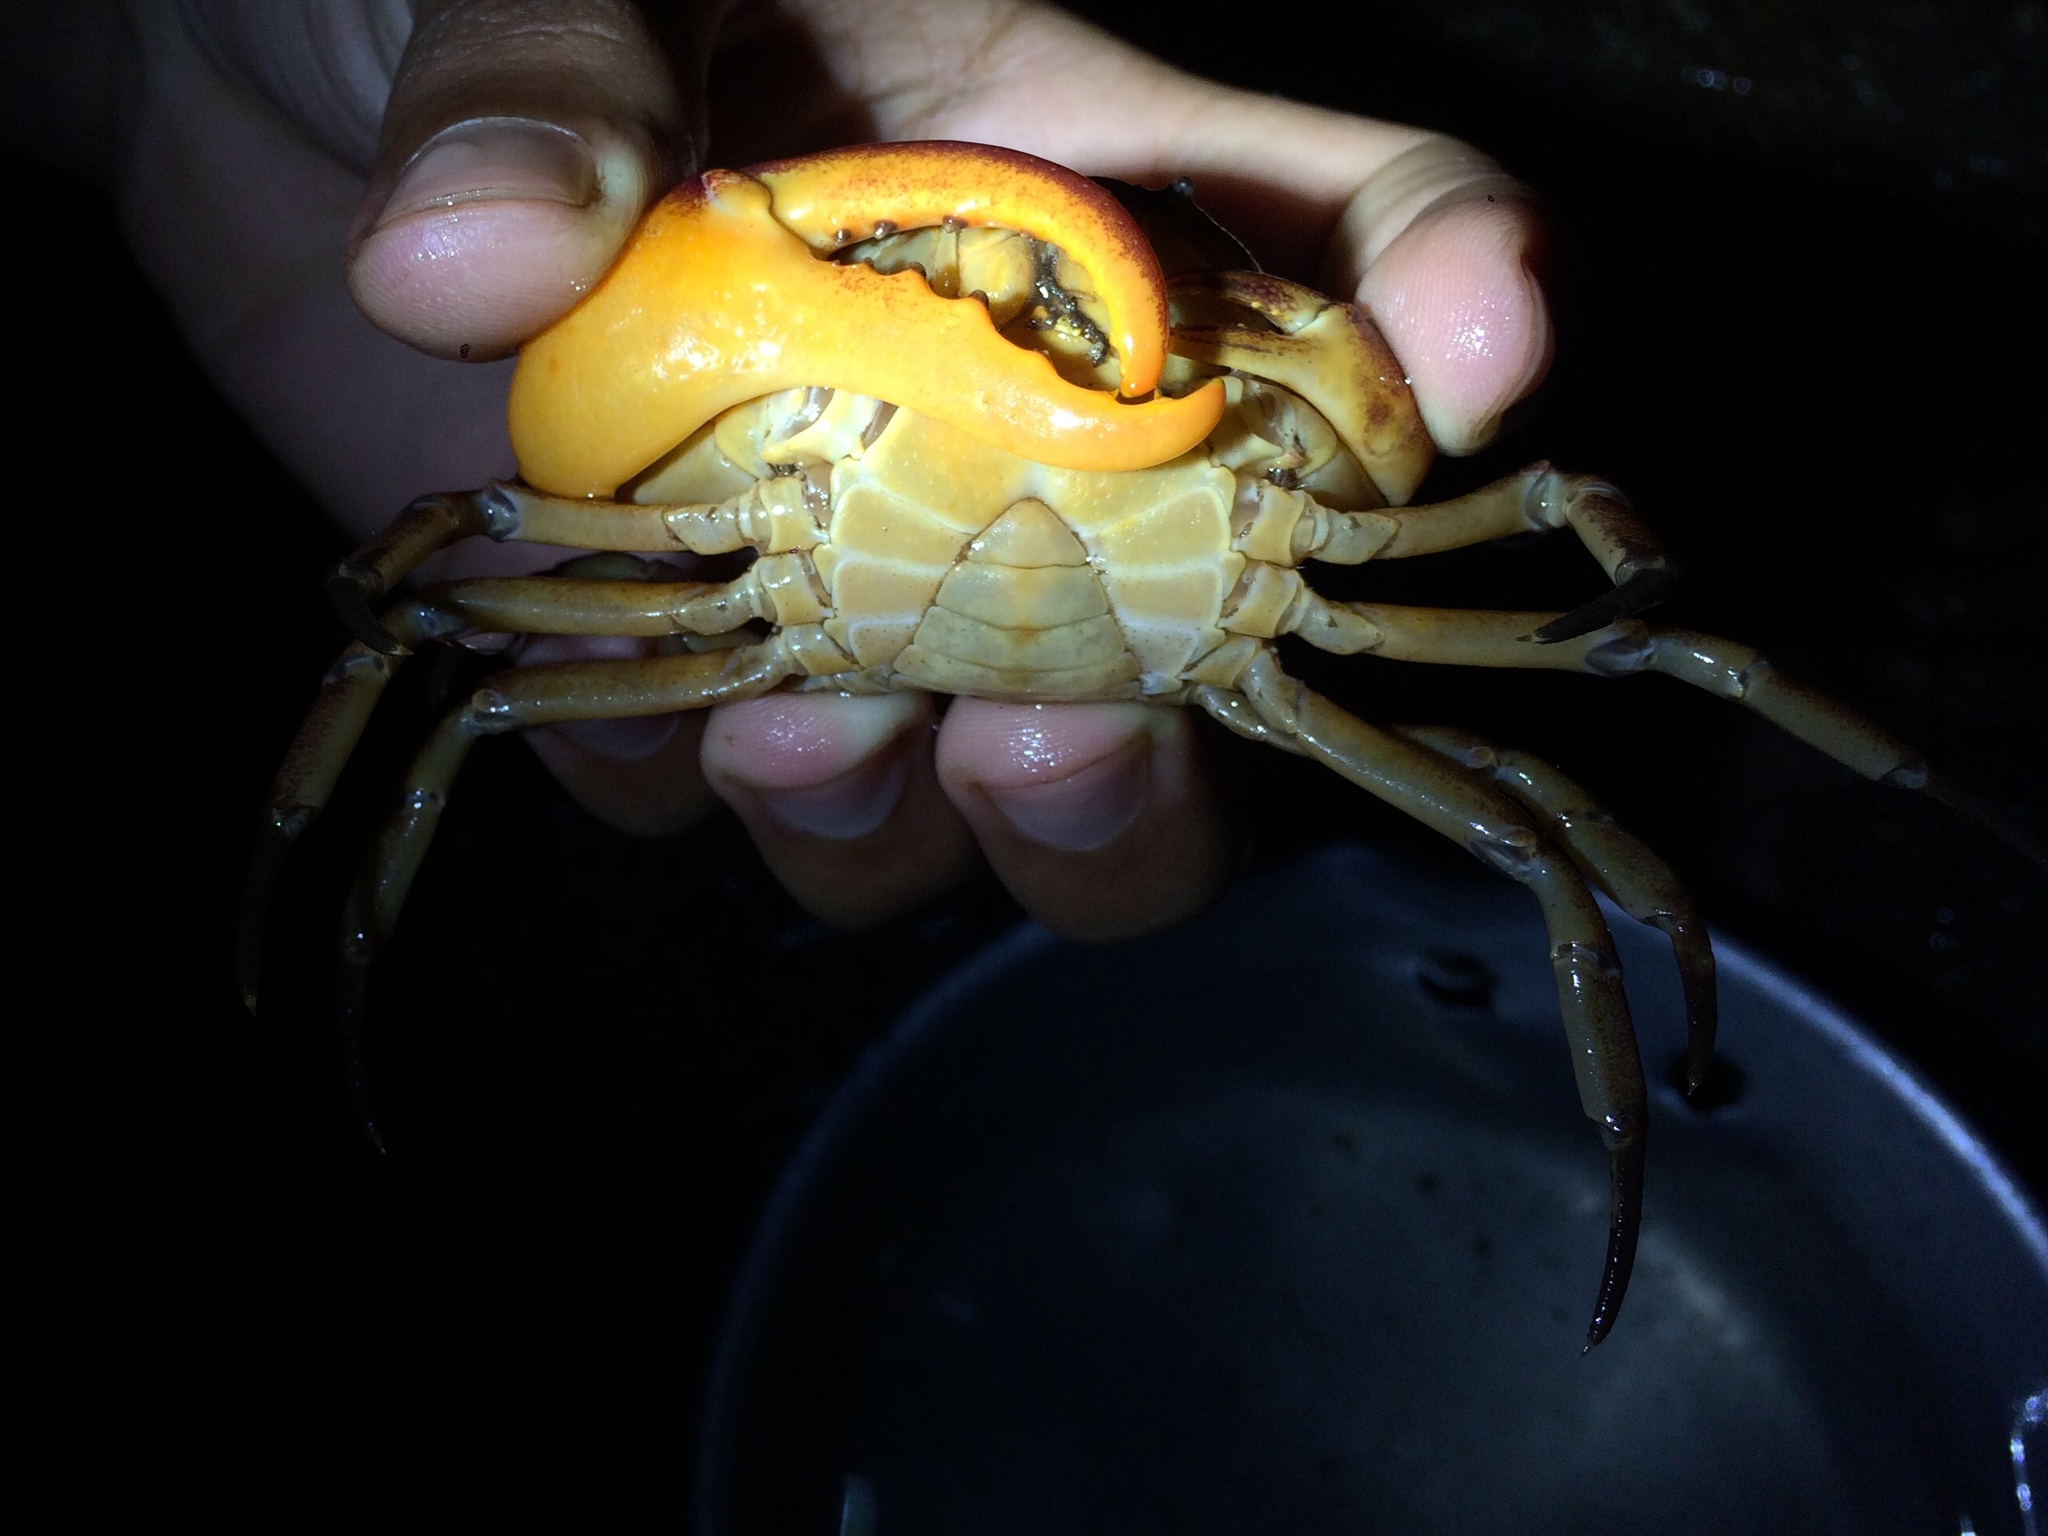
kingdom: Animalia
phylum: Arthropoda
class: Malacostraca
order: Decapoda
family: Trichodactylidae
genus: Trichodactylus
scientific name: Trichodactylus crassus
